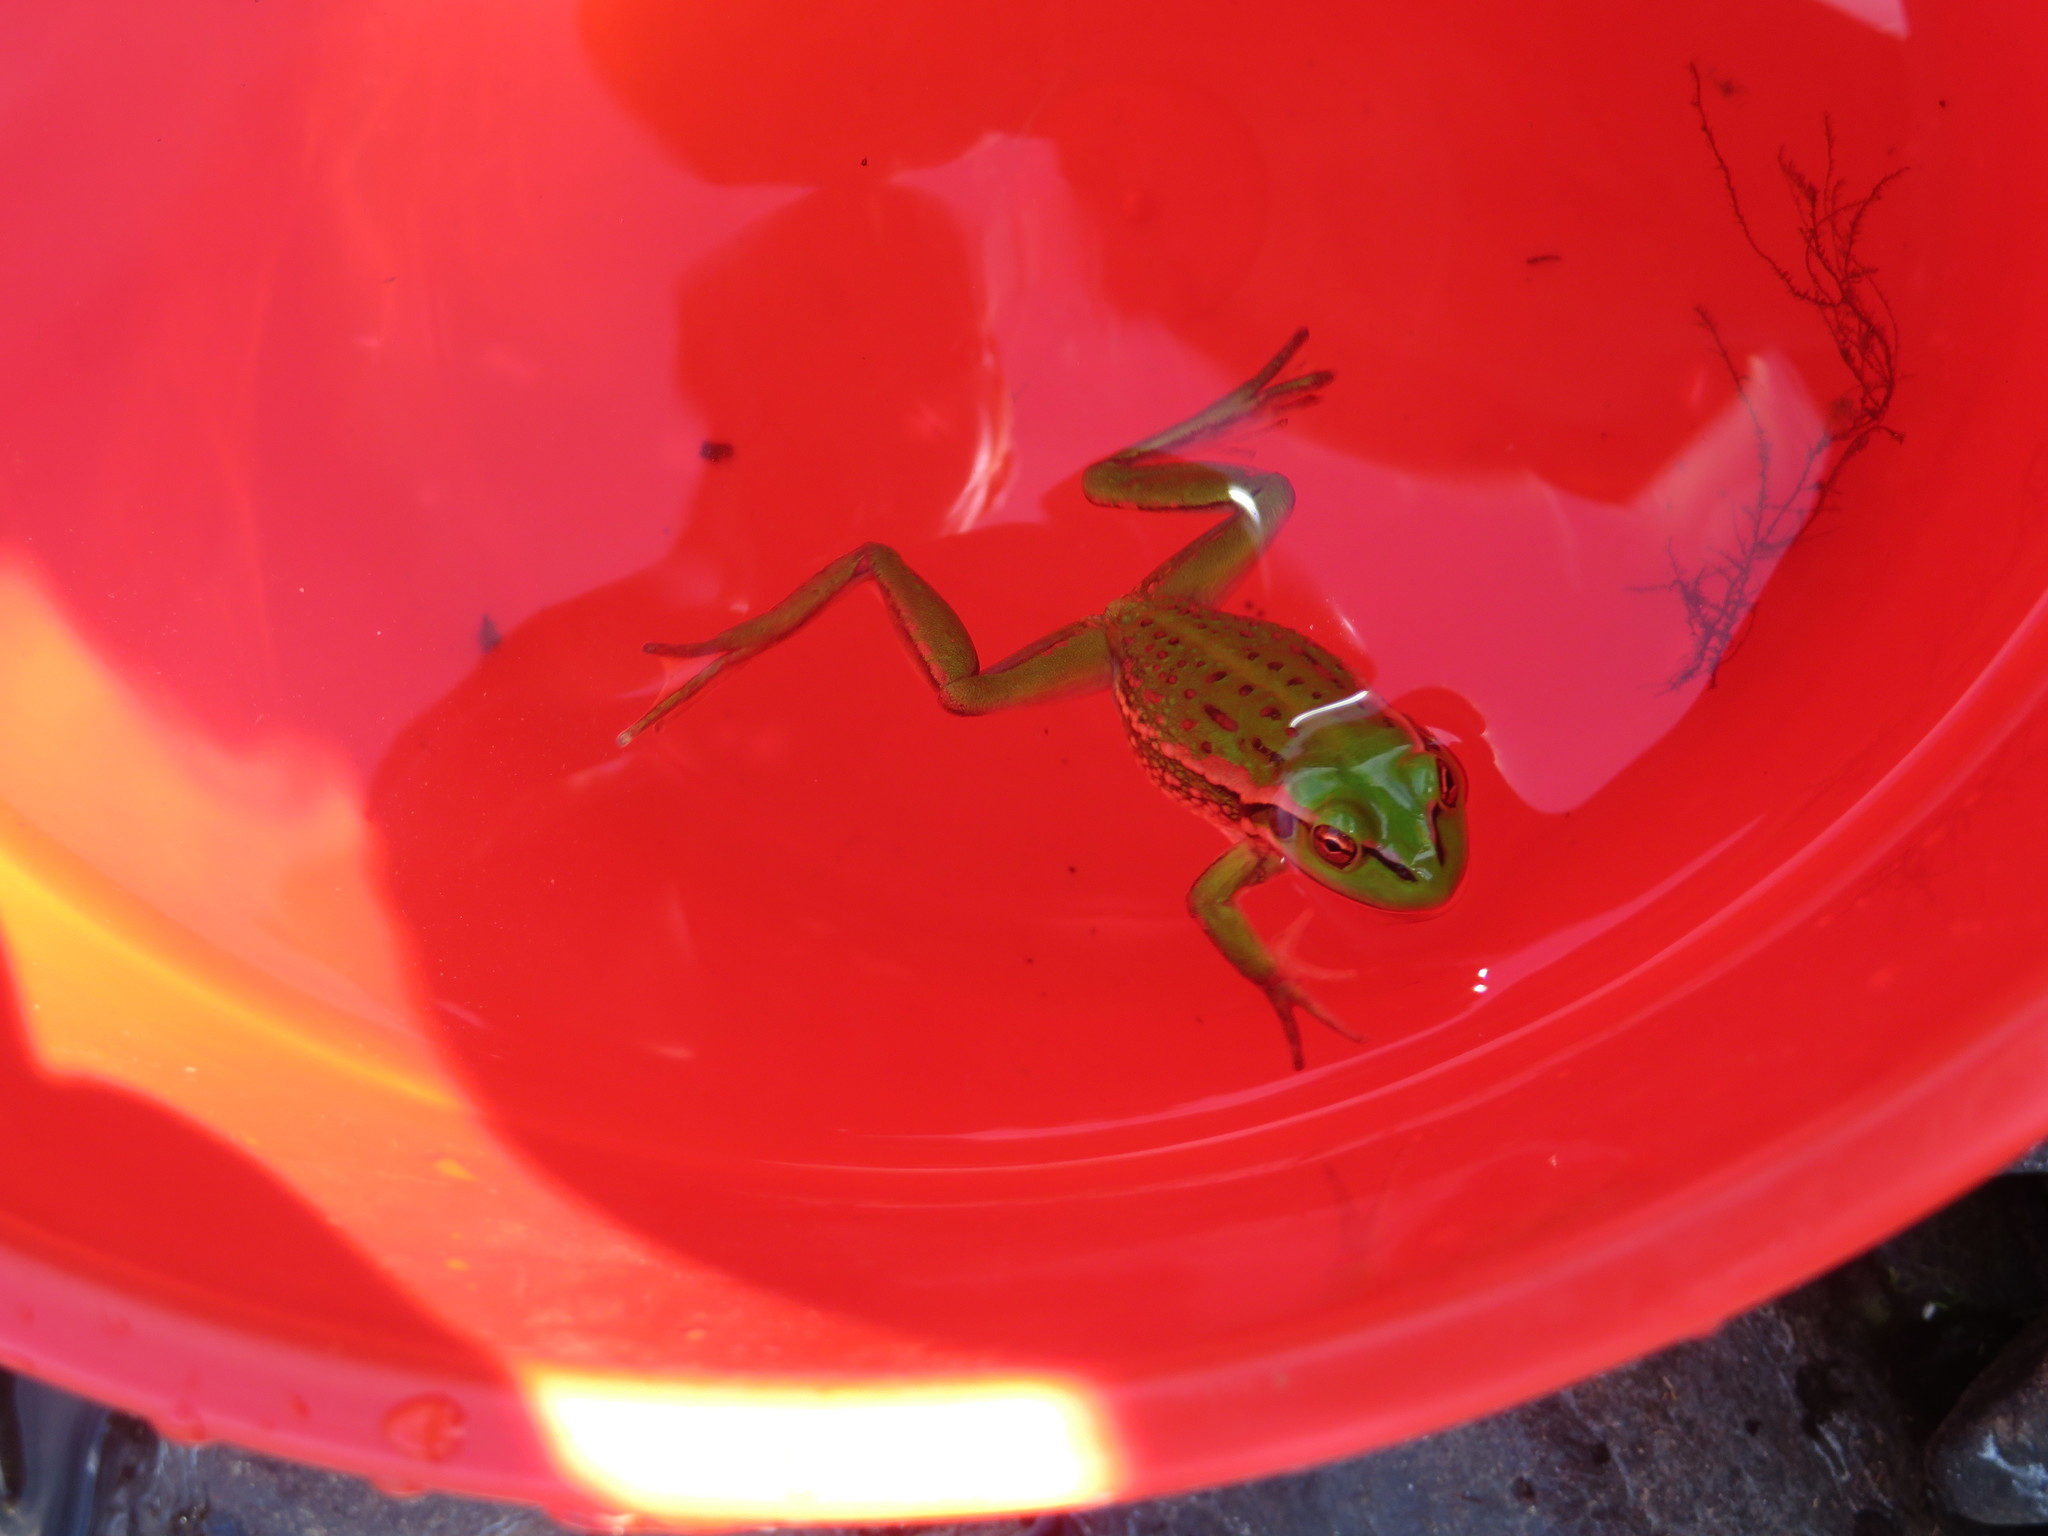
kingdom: Animalia
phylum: Chordata
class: Amphibia
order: Anura
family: Pelodryadidae
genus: Ranoidea
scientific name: Ranoidea raniformis
